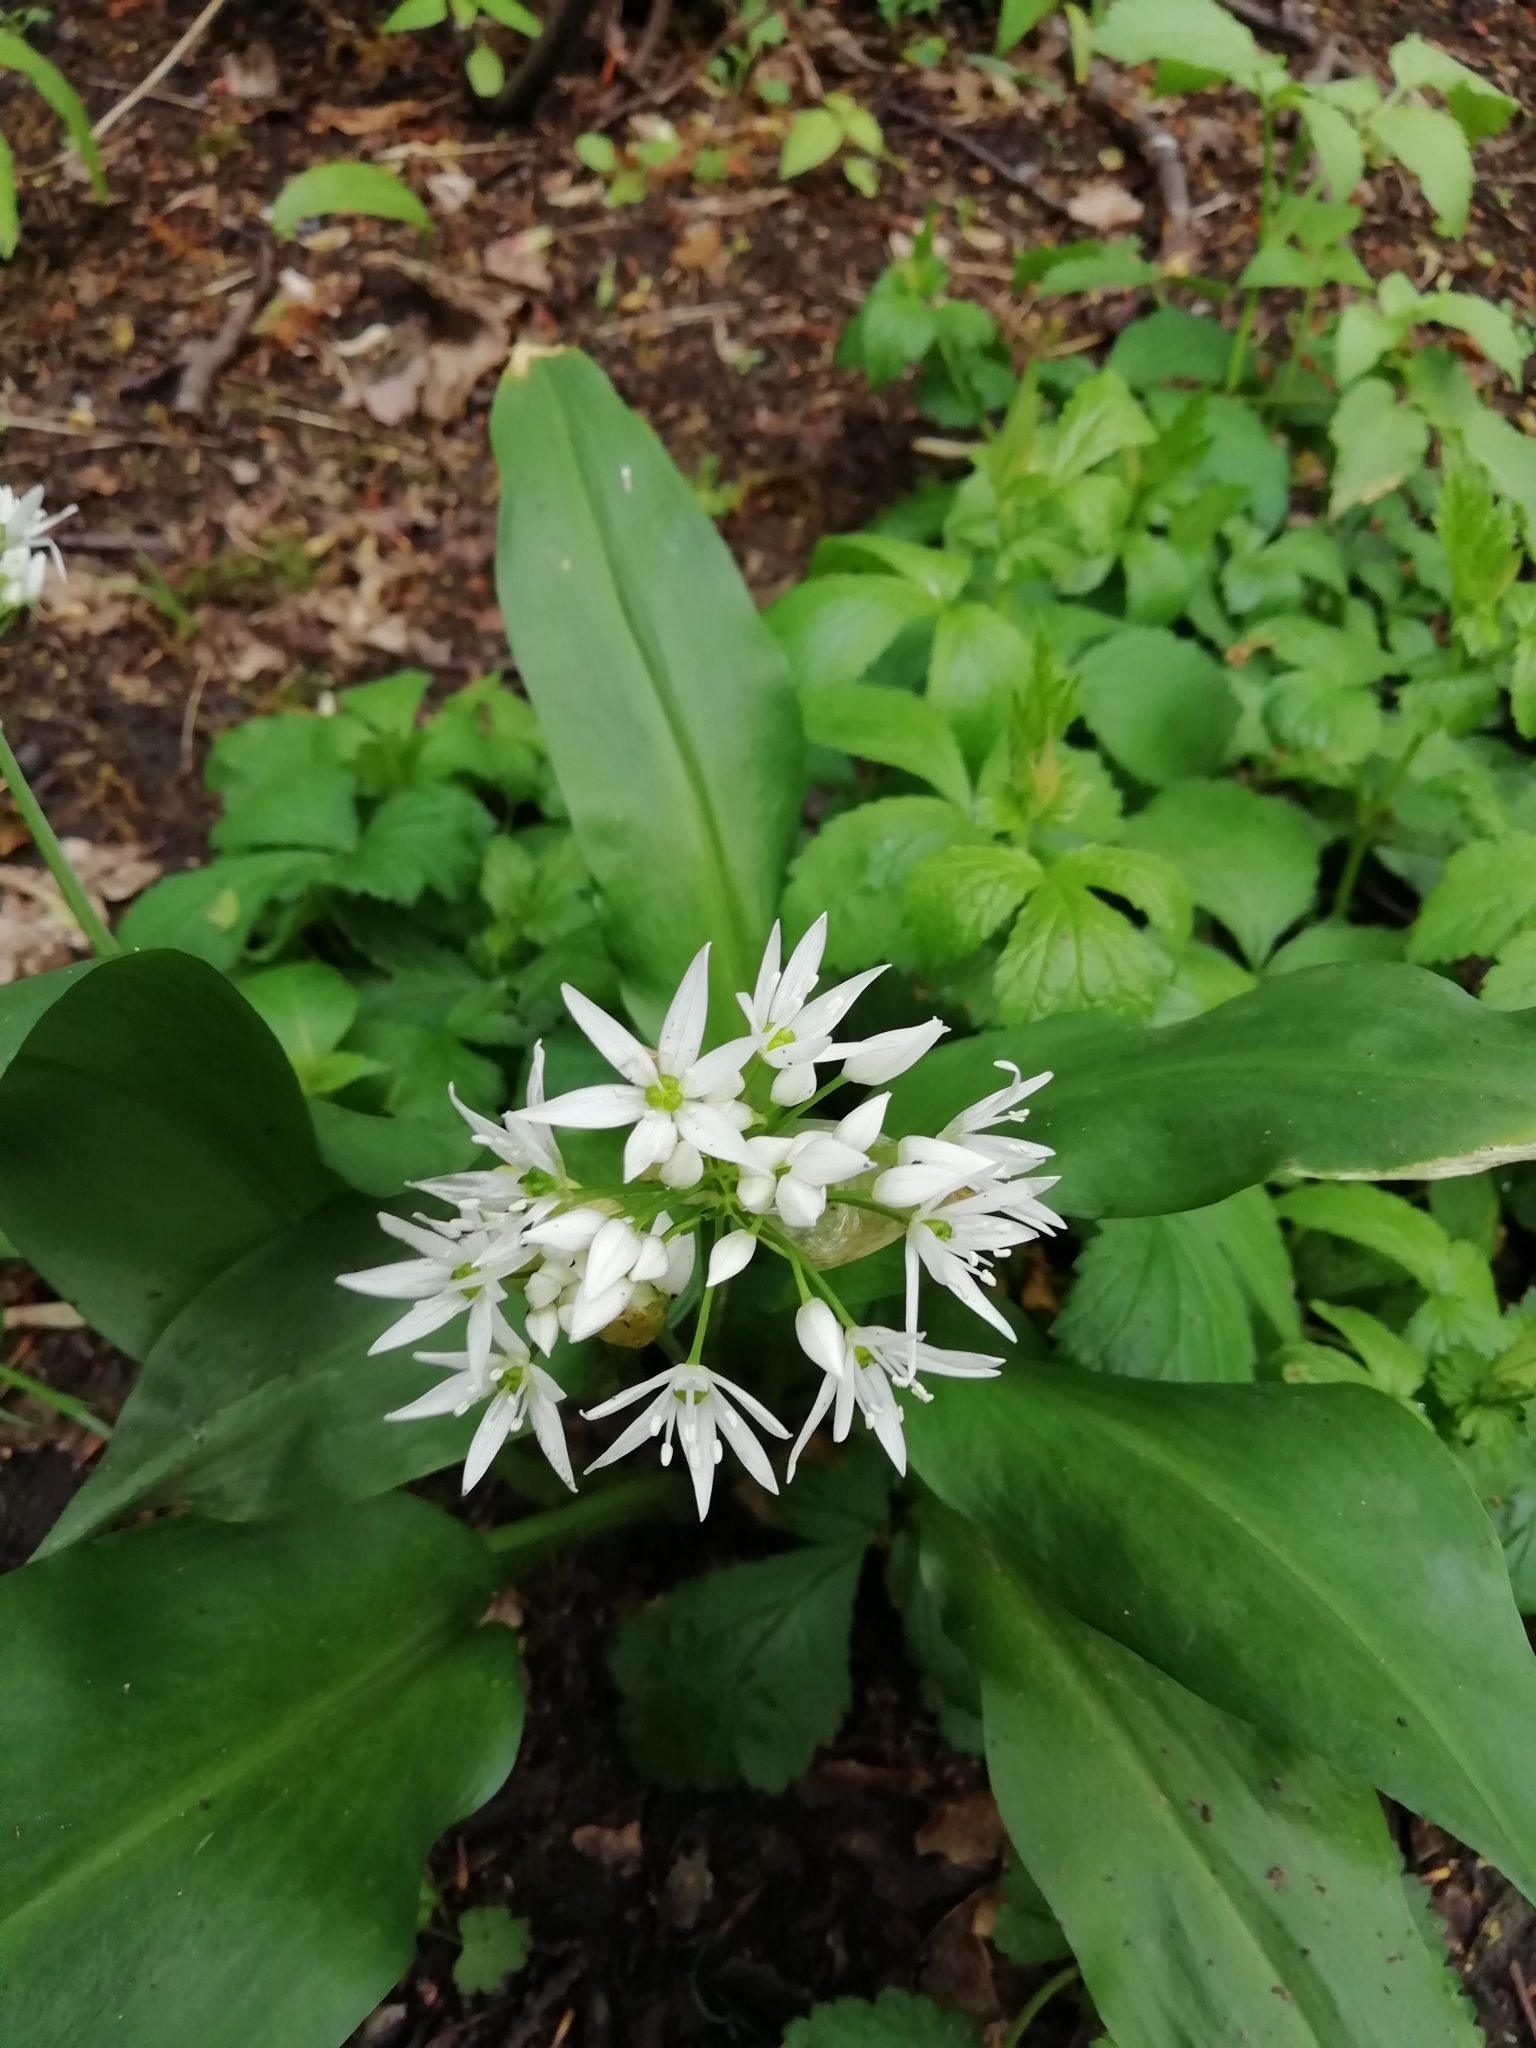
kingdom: Plantae
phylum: Tracheophyta
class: Liliopsida
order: Asparagales
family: Amaryllidaceae
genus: Allium
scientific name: Allium ursinum
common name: Ramsons
